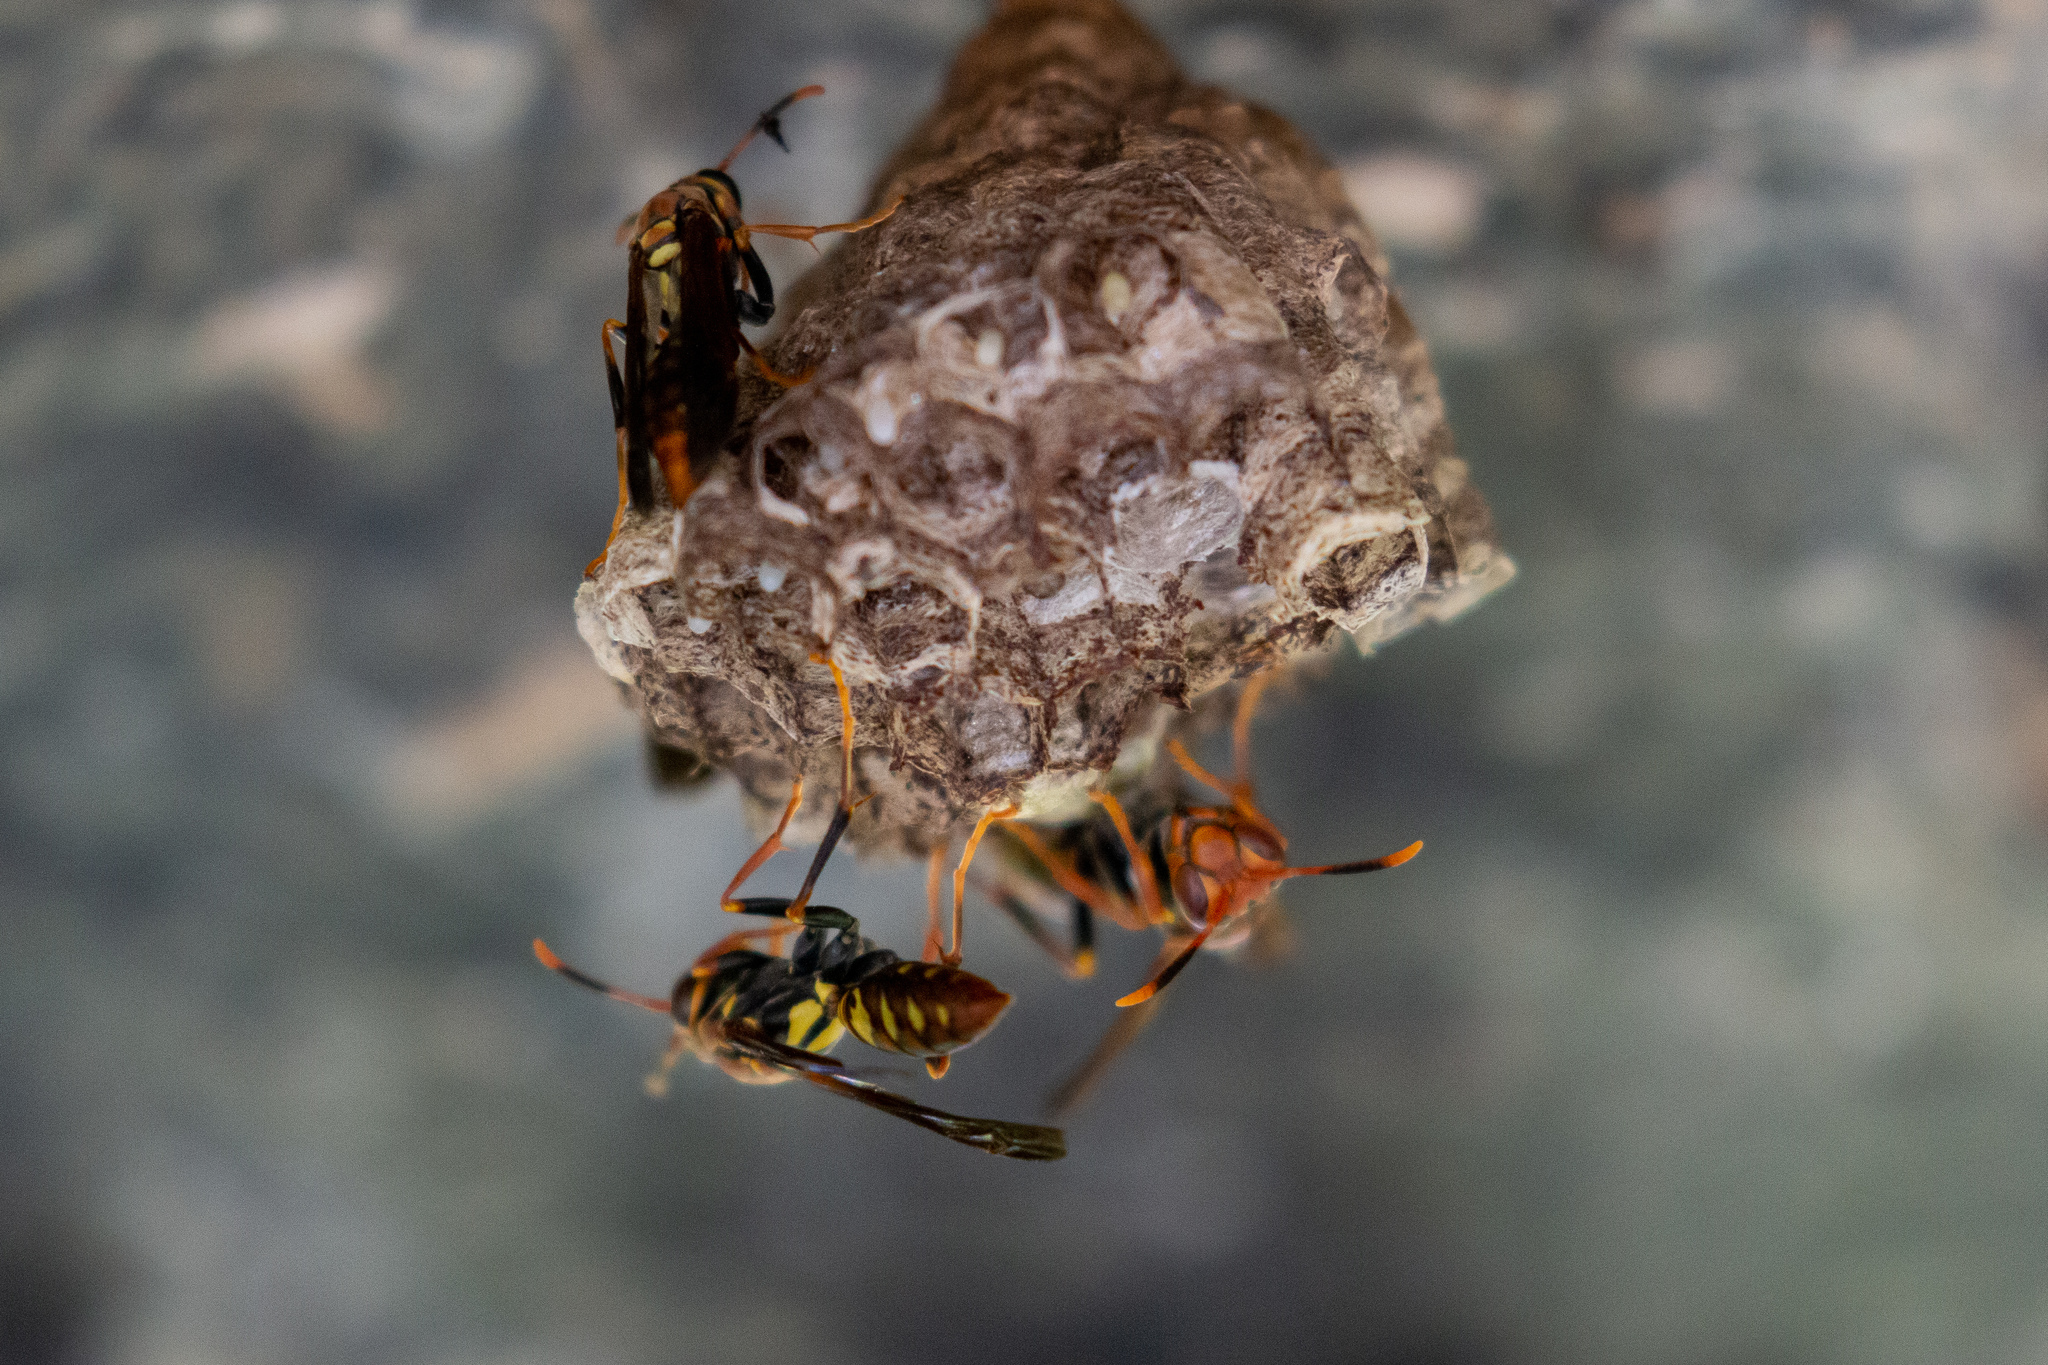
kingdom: Animalia
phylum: Arthropoda
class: Insecta
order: Hymenoptera
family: Eumenidae
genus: Polistes
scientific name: Polistes versicolor
